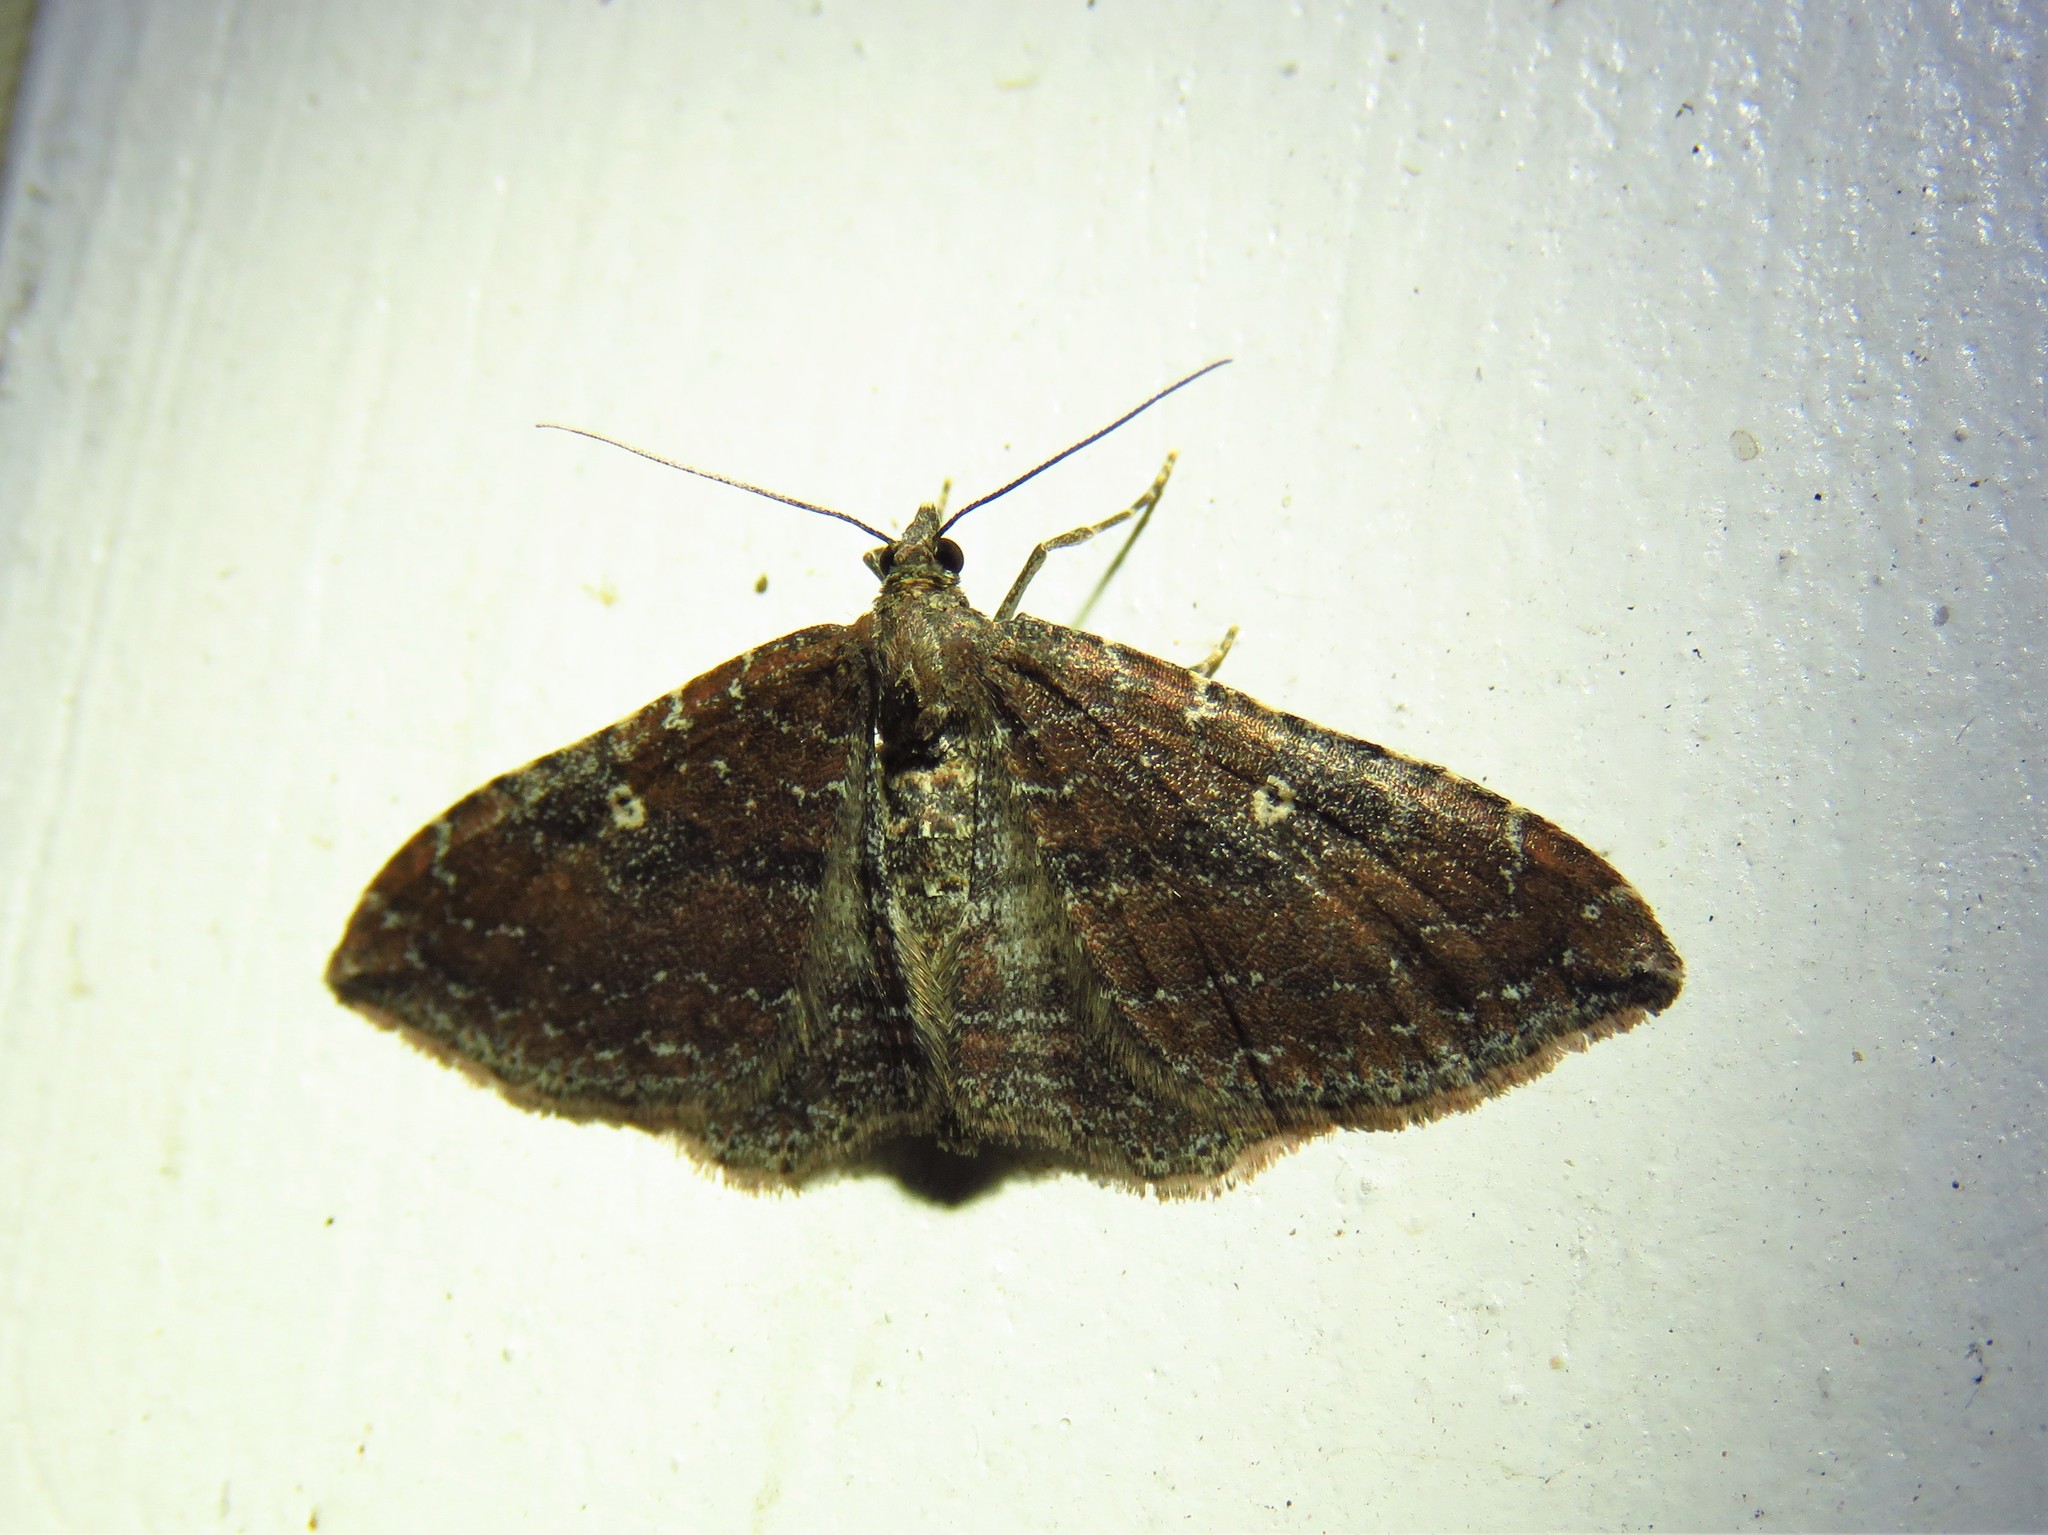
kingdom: Animalia
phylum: Arthropoda
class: Insecta
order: Lepidoptera
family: Geometridae
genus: Orthonama
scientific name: Orthonama obstipata
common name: The gem
